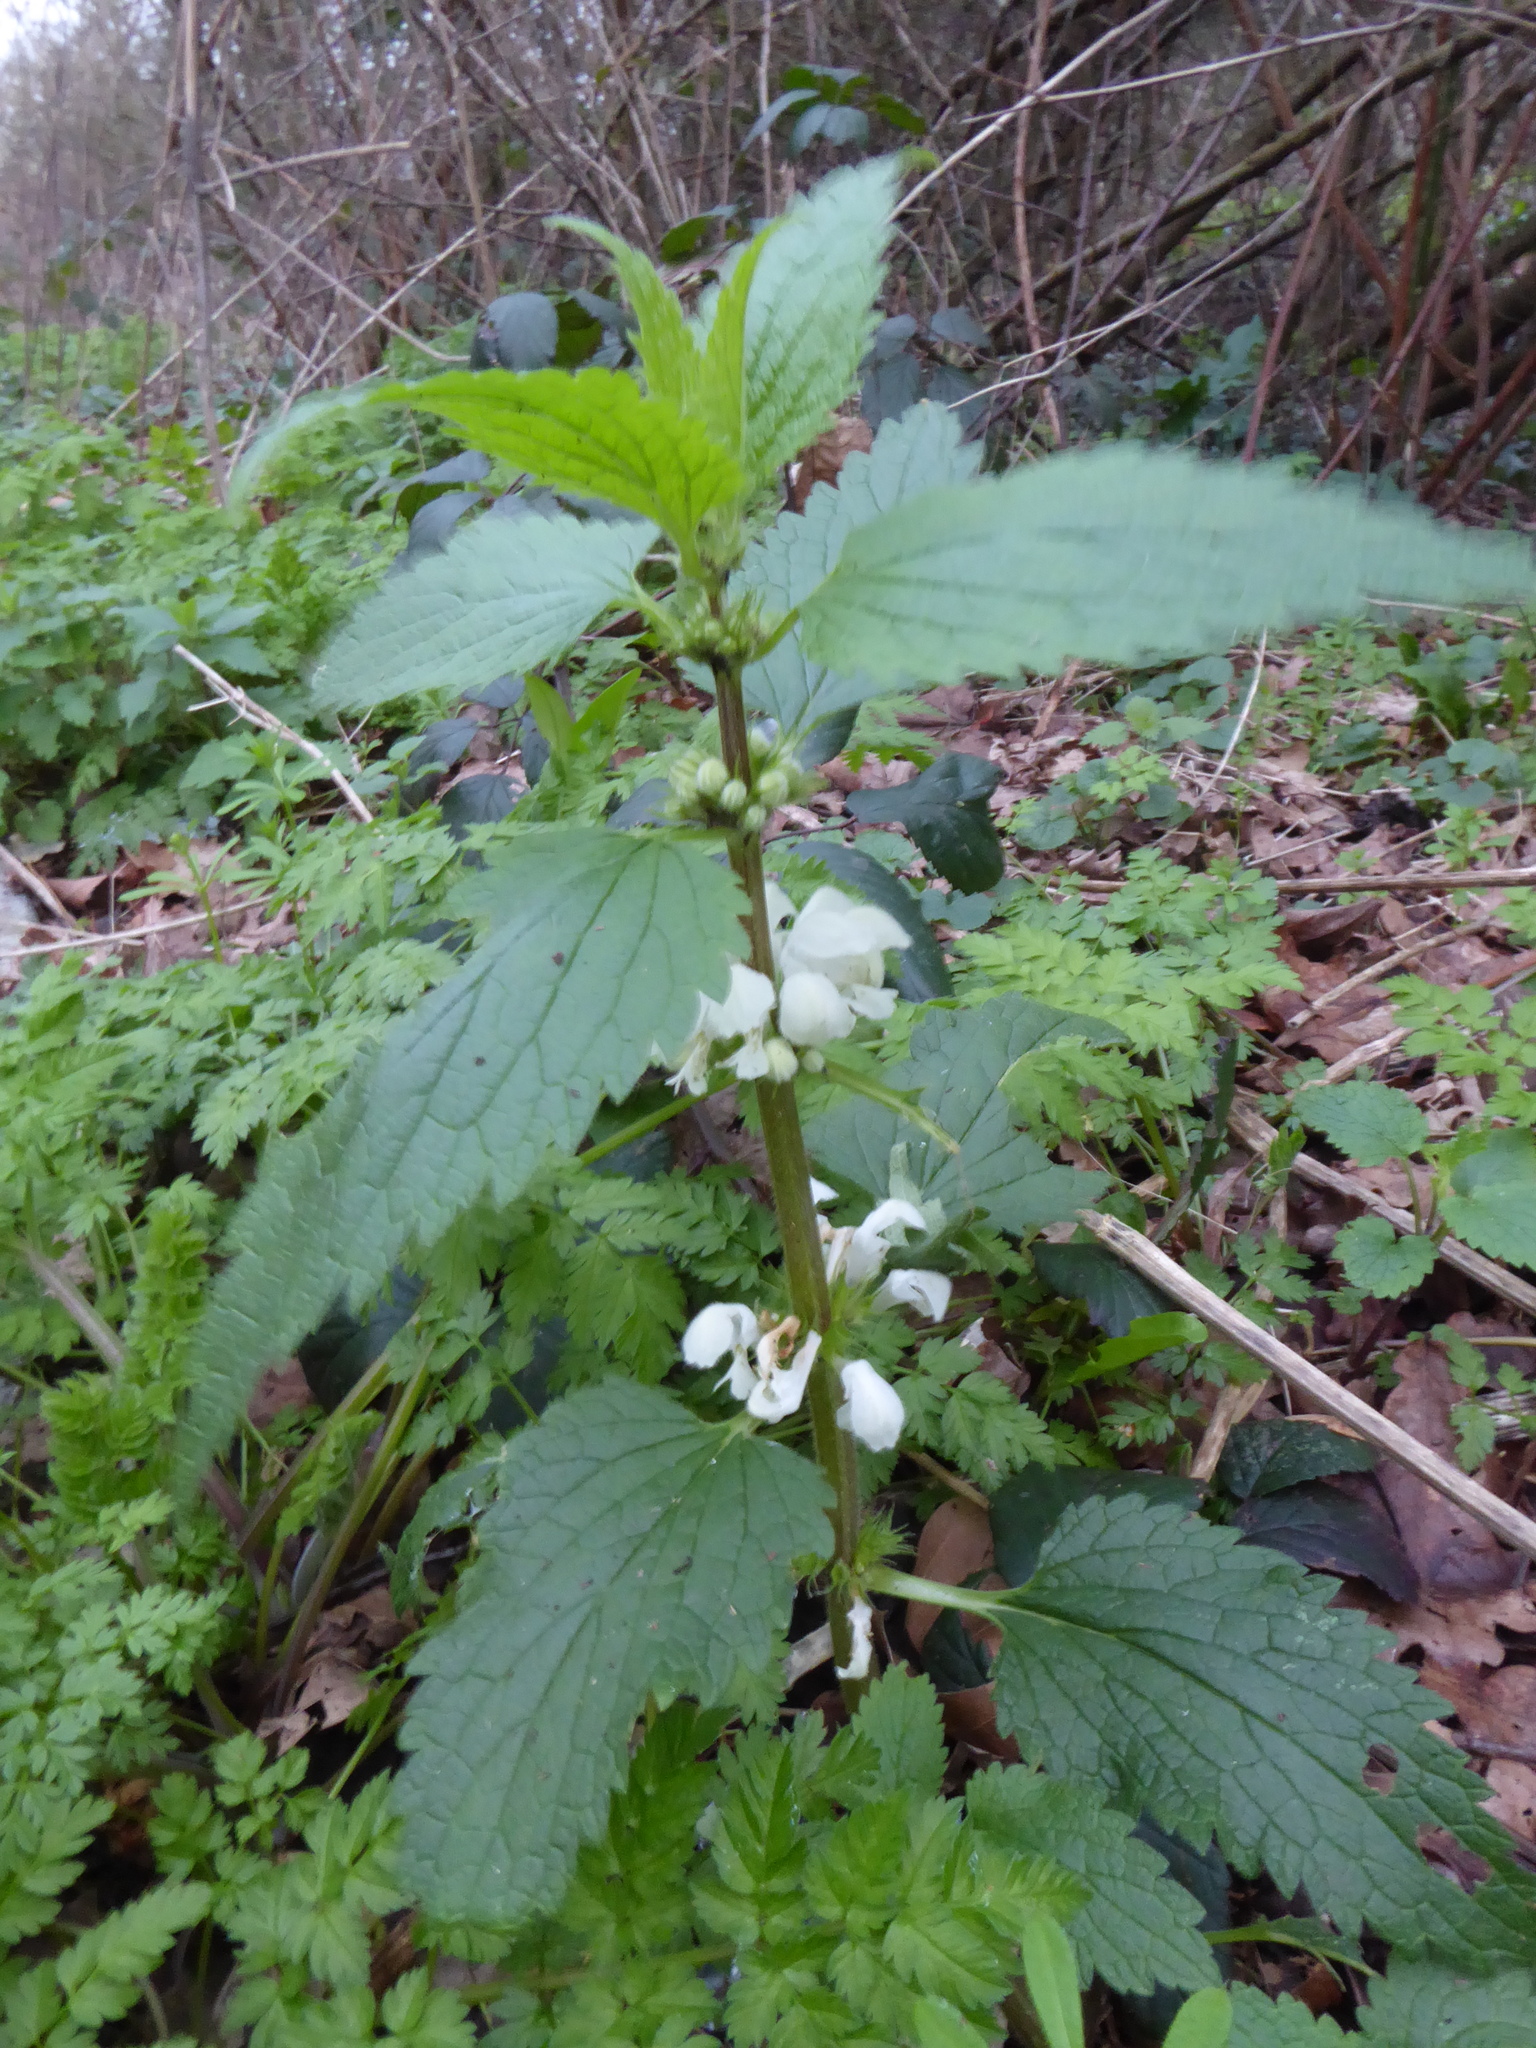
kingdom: Plantae
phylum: Tracheophyta
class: Magnoliopsida
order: Lamiales
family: Lamiaceae
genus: Lamium
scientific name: Lamium album
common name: White dead-nettle
